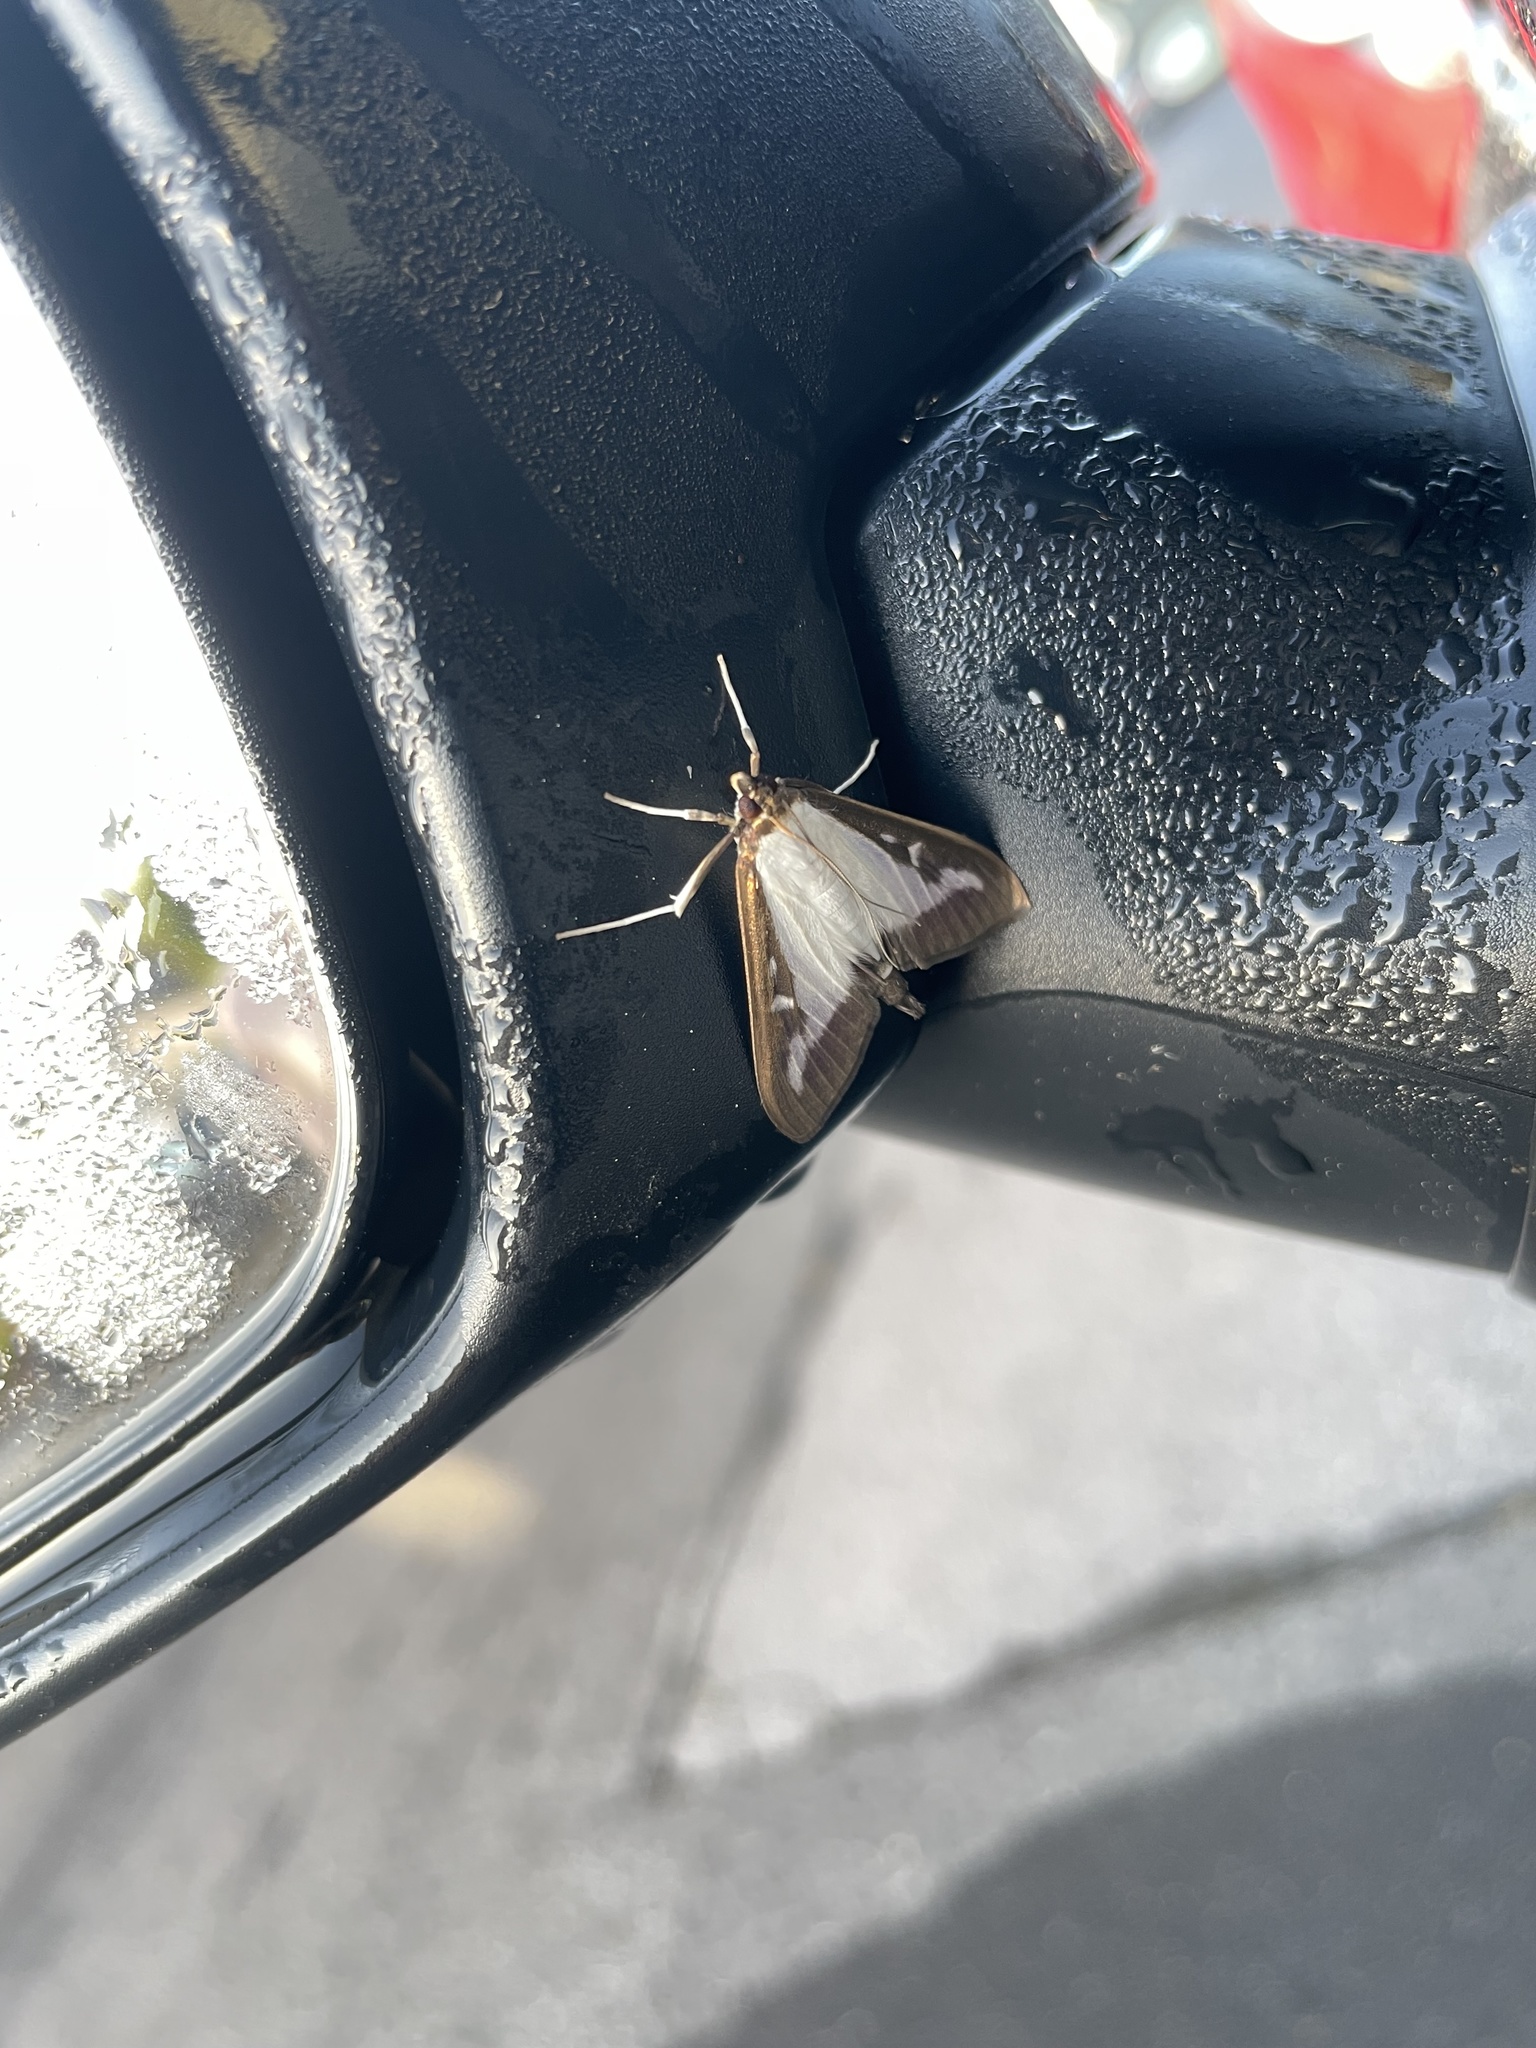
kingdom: Animalia
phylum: Arthropoda
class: Insecta
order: Lepidoptera
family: Crambidae
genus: Cydalima
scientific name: Cydalima perspectalis
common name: Box tree moth
